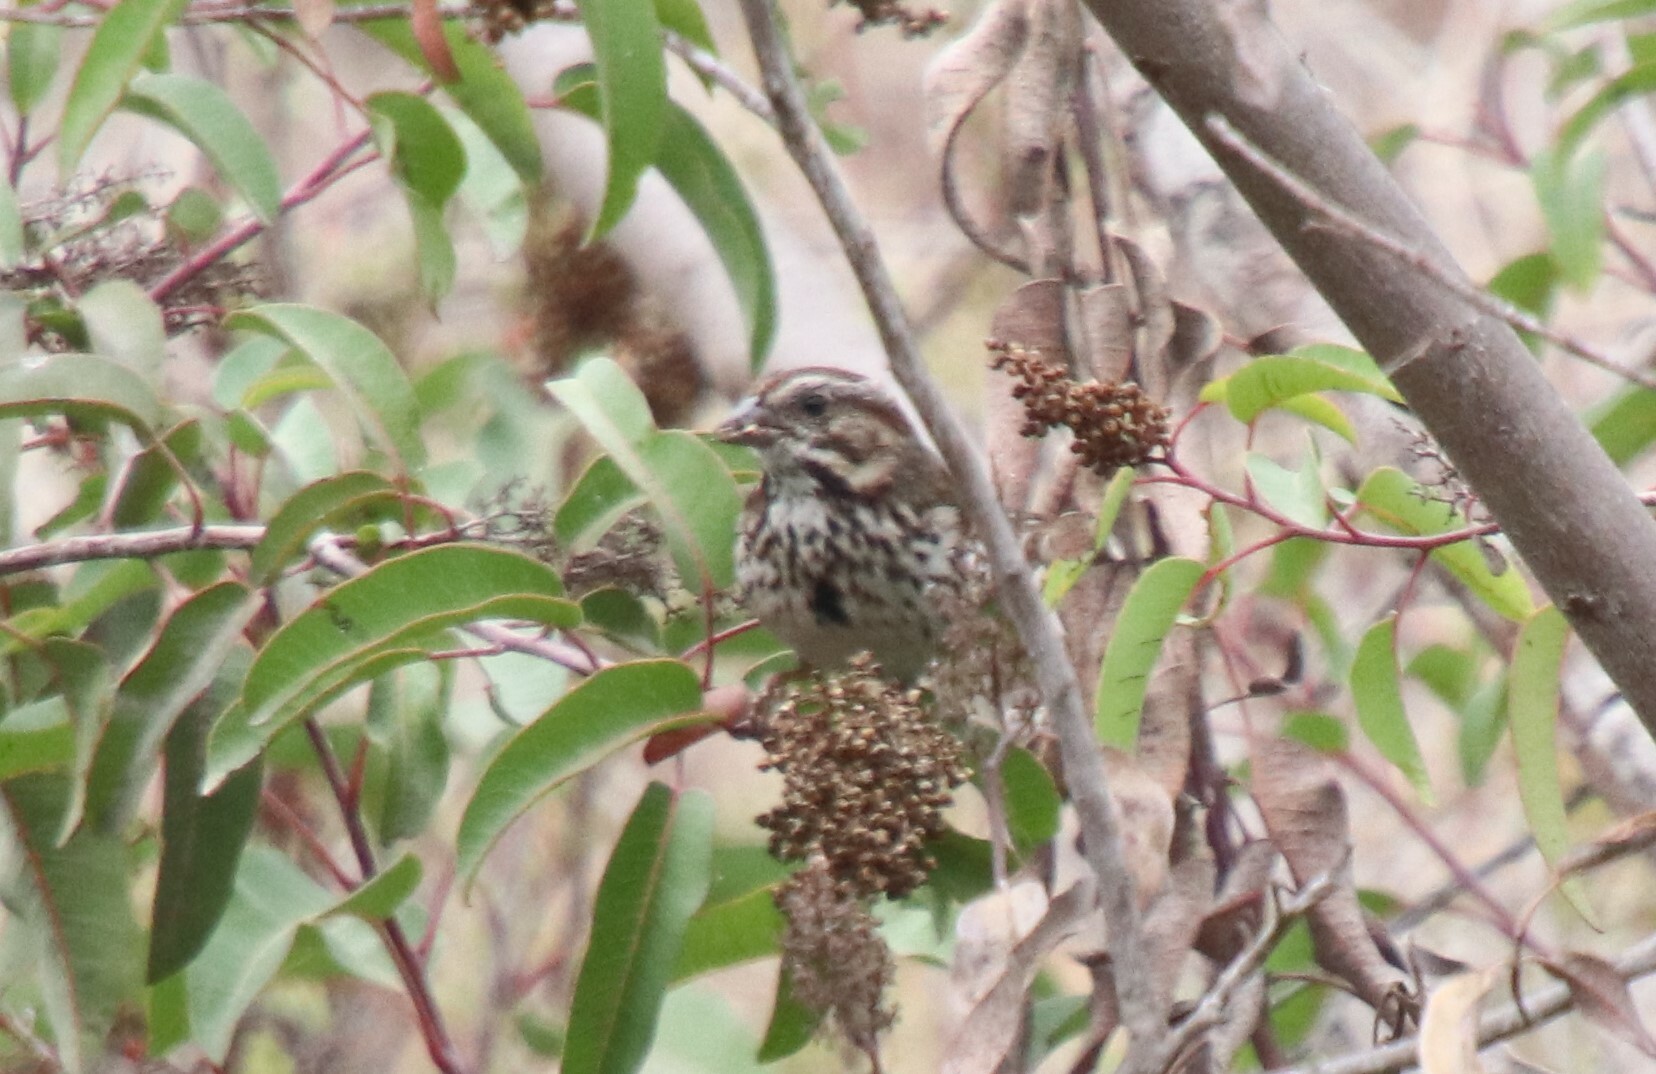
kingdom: Animalia
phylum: Chordata
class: Aves
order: Passeriformes
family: Passerellidae
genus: Melospiza
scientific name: Melospiza melodia
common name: Song sparrow
